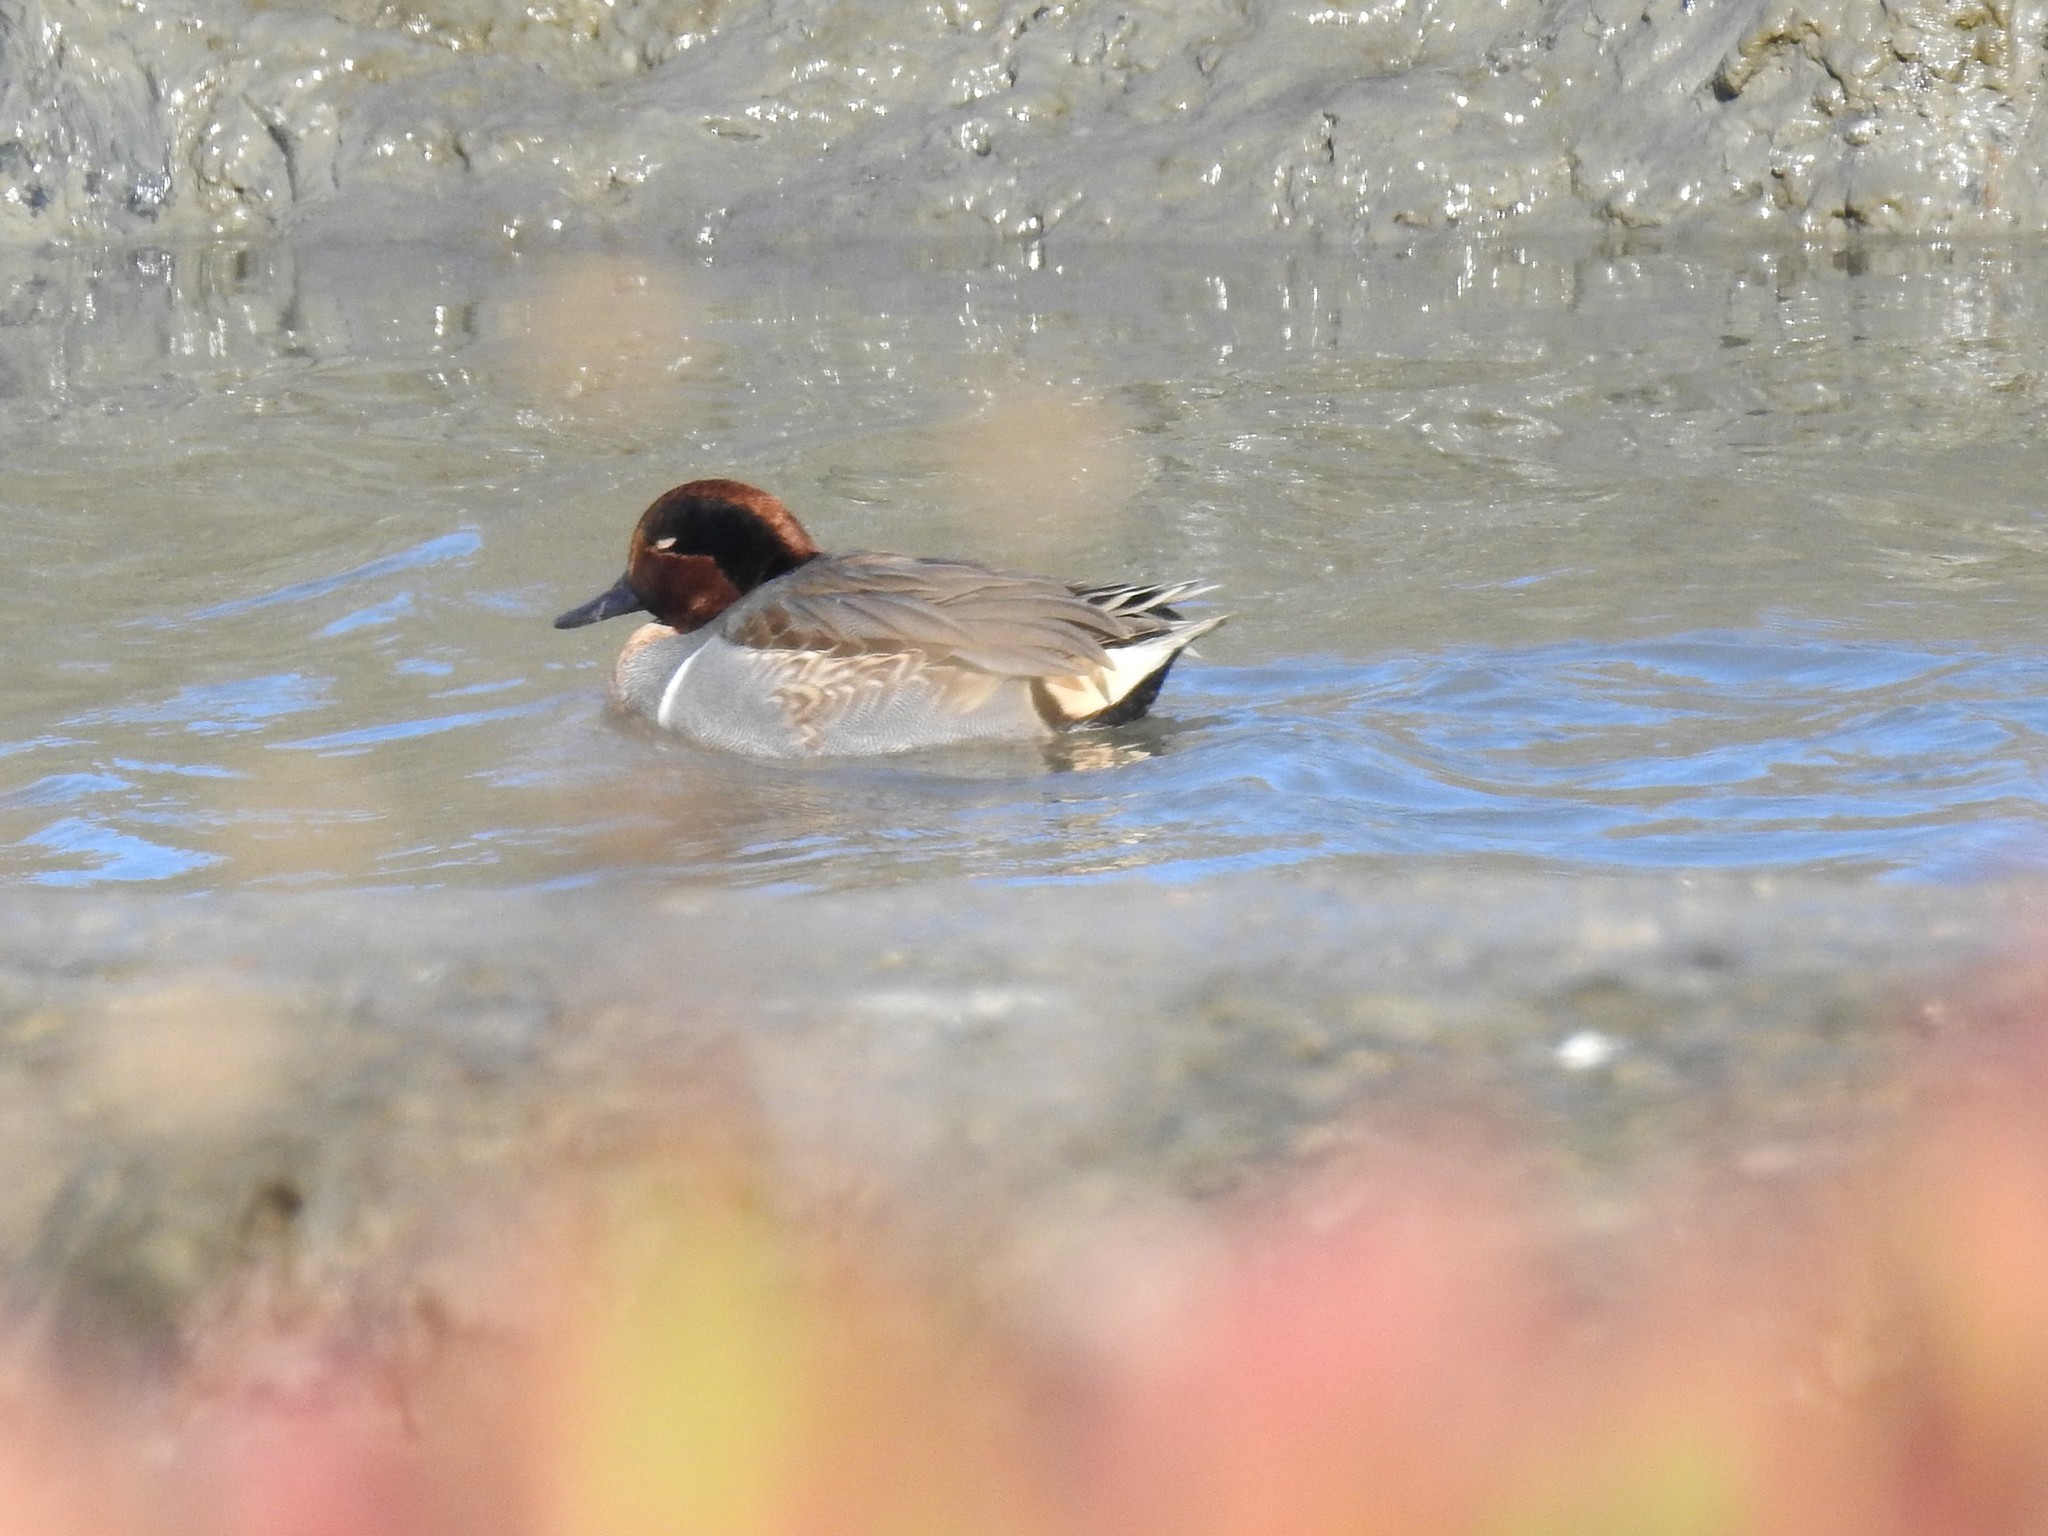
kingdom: Animalia
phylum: Chordata
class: Aves
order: Anseriformes
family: Anatidae
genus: Anas
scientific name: Anas crecca
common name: Eurasian teal
